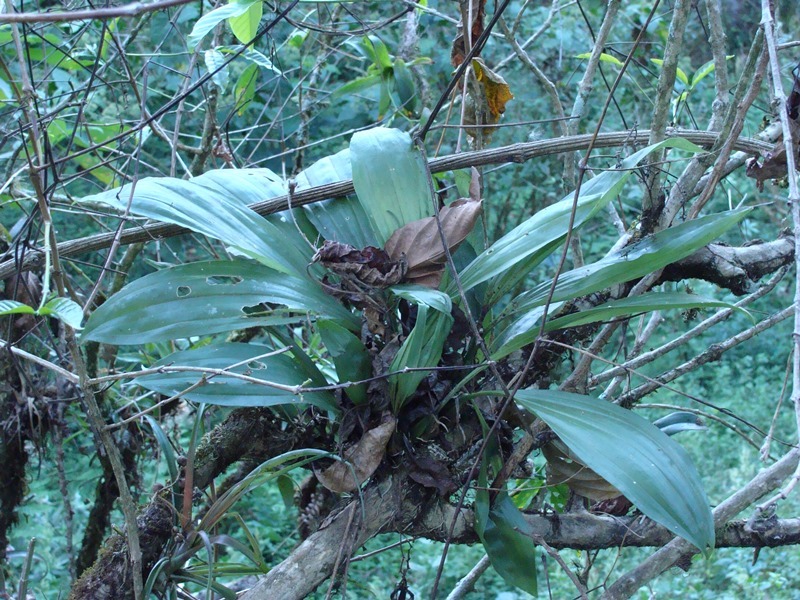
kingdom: Plantae
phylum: Tracheophyta
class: Liliopsida
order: Asparagales
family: Orchidaceae
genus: Gongora
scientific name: Gongora batemanni
